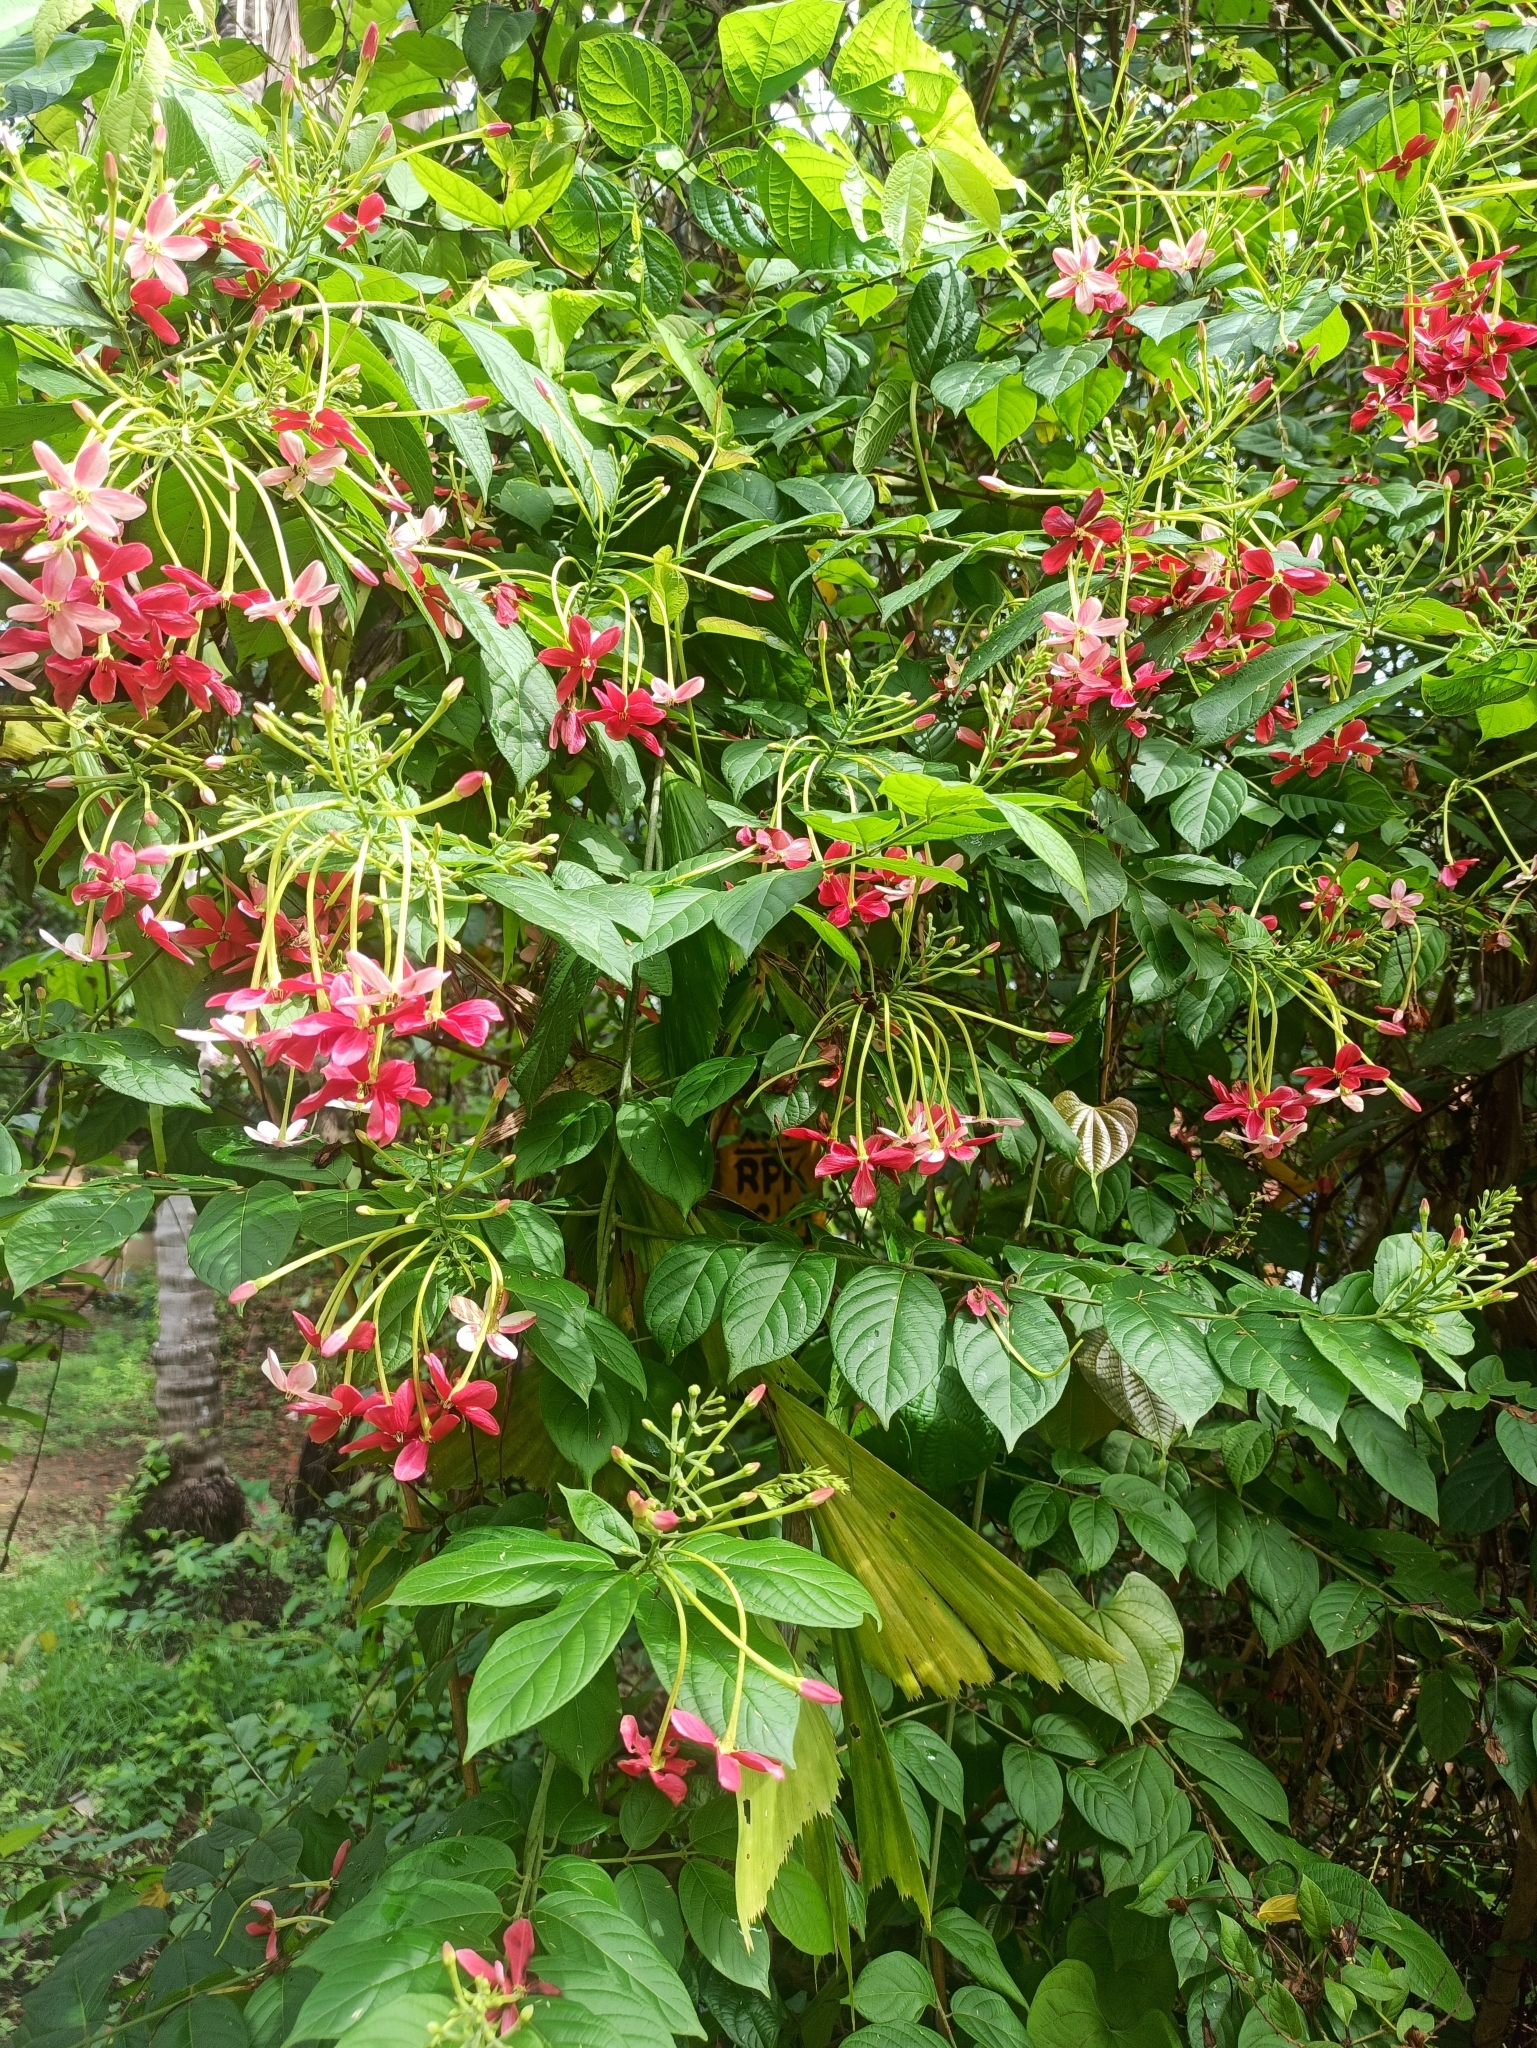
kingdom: Plantae
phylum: Tracheophyta
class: Magnoliopsida
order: Myrtales
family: Combretaceae
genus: Combretum
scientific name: Combretum indicum
